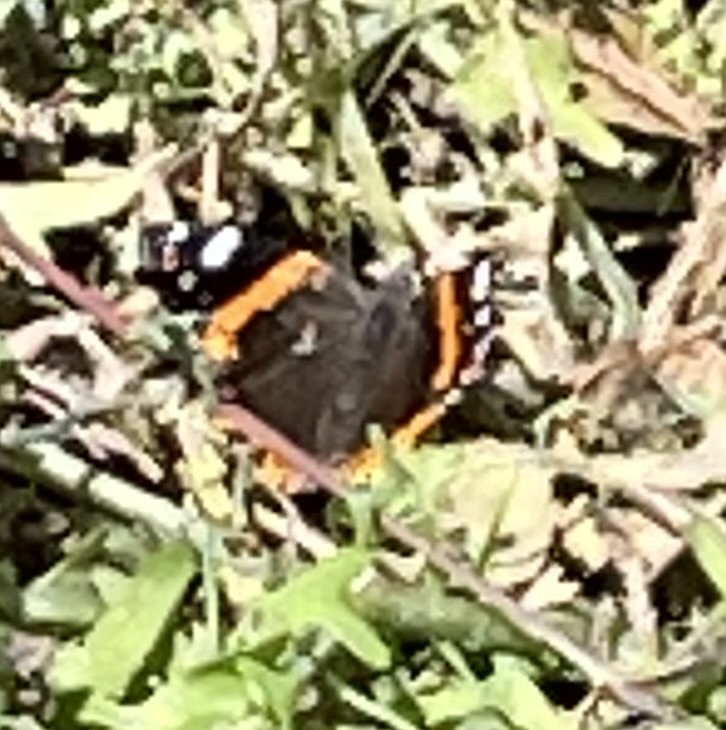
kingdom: Animalia
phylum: Arthropoda
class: Insecta
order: Lepidoptera
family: Nymphalidae
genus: Vanessa
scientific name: Vanessa atalanta
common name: Red admiral
